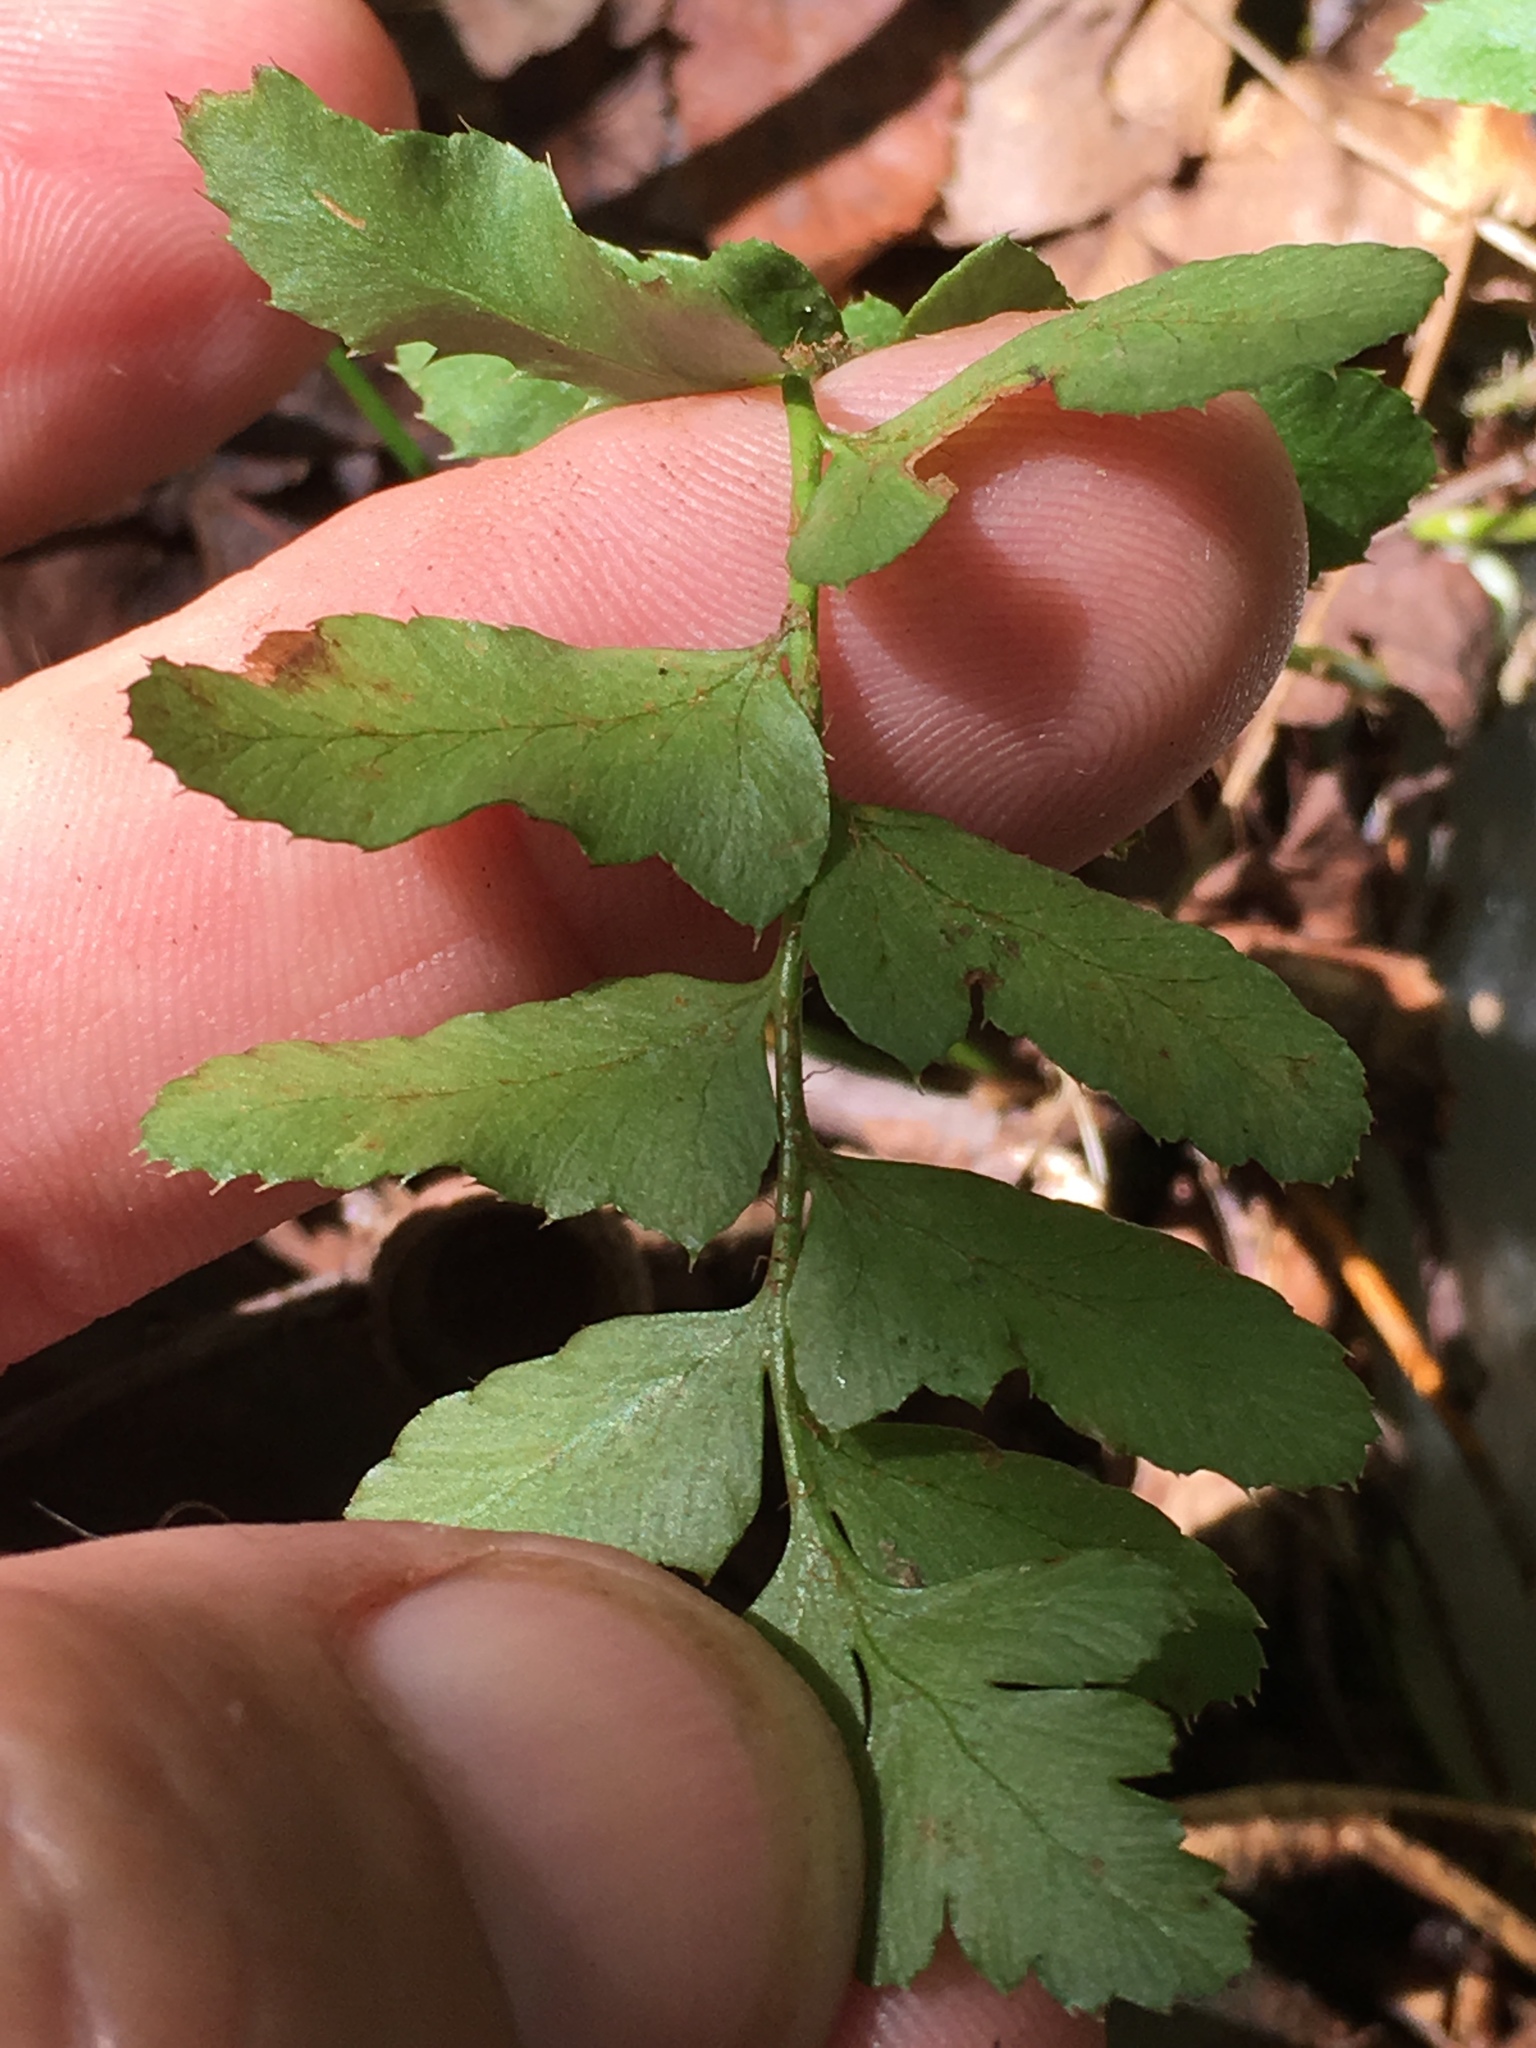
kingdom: Plantae
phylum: Tracheophyta
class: Polypodiopsida
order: Polypodiales
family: Dryopteridaceae
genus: Polystichum
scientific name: Polystichum acrostichoides
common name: Christmas fern
